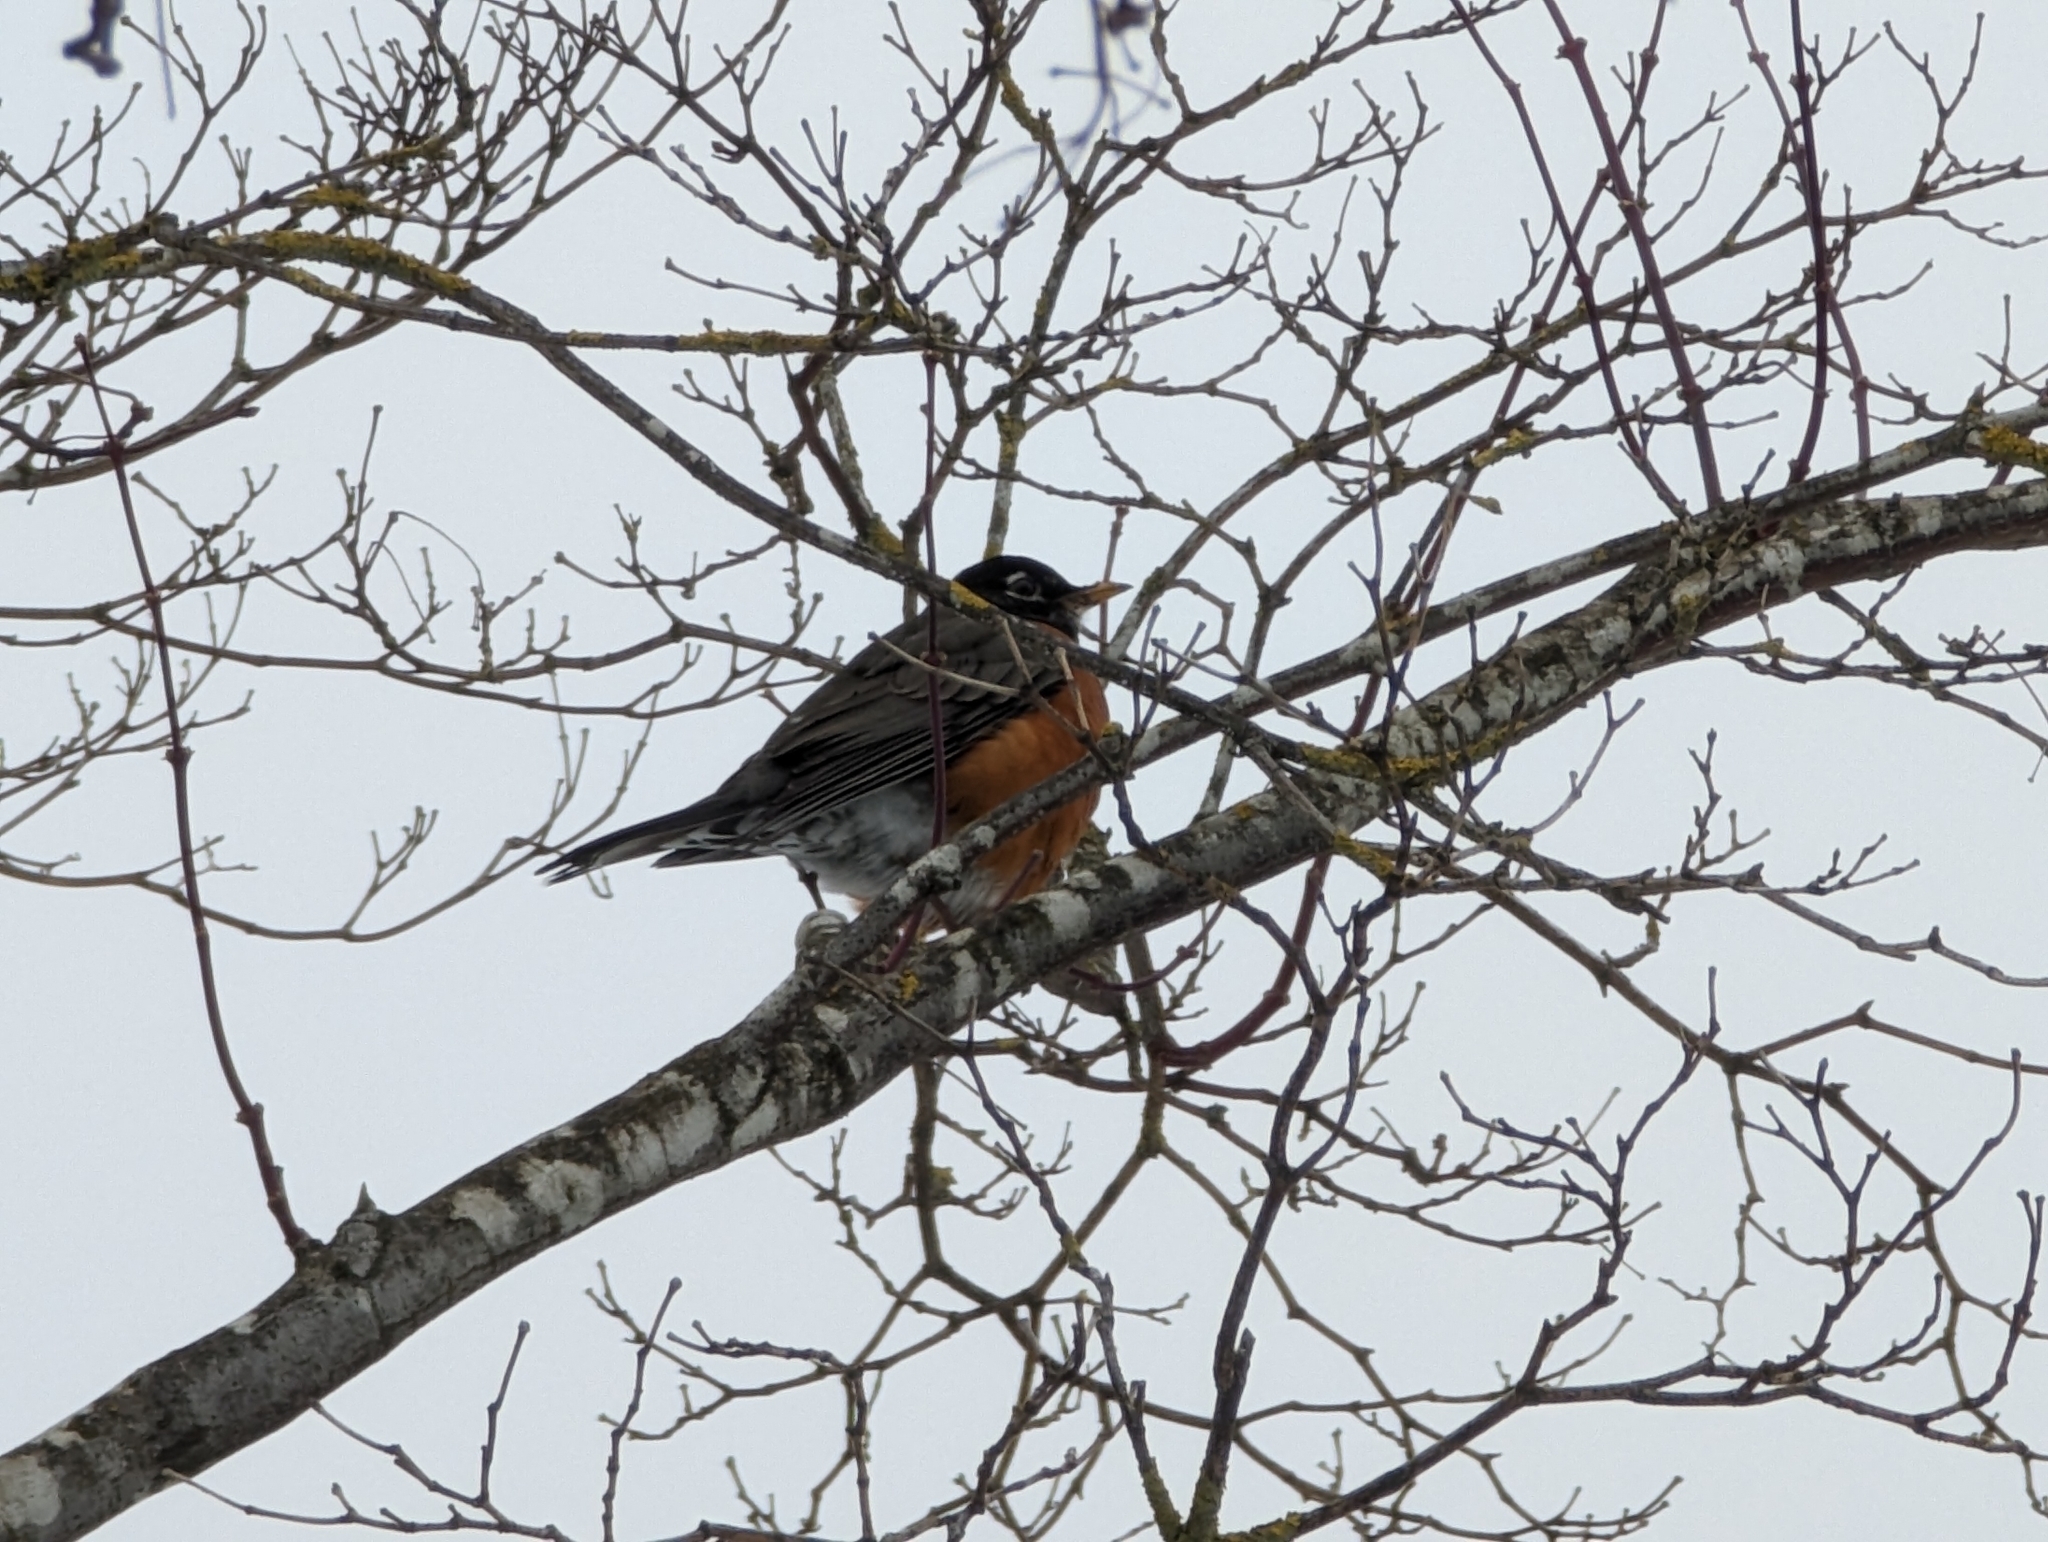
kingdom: Animalia
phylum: Chordata
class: Aves
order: Passeriformes
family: Turdidae
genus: Turdus
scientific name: Turdus migratorius
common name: American robin
